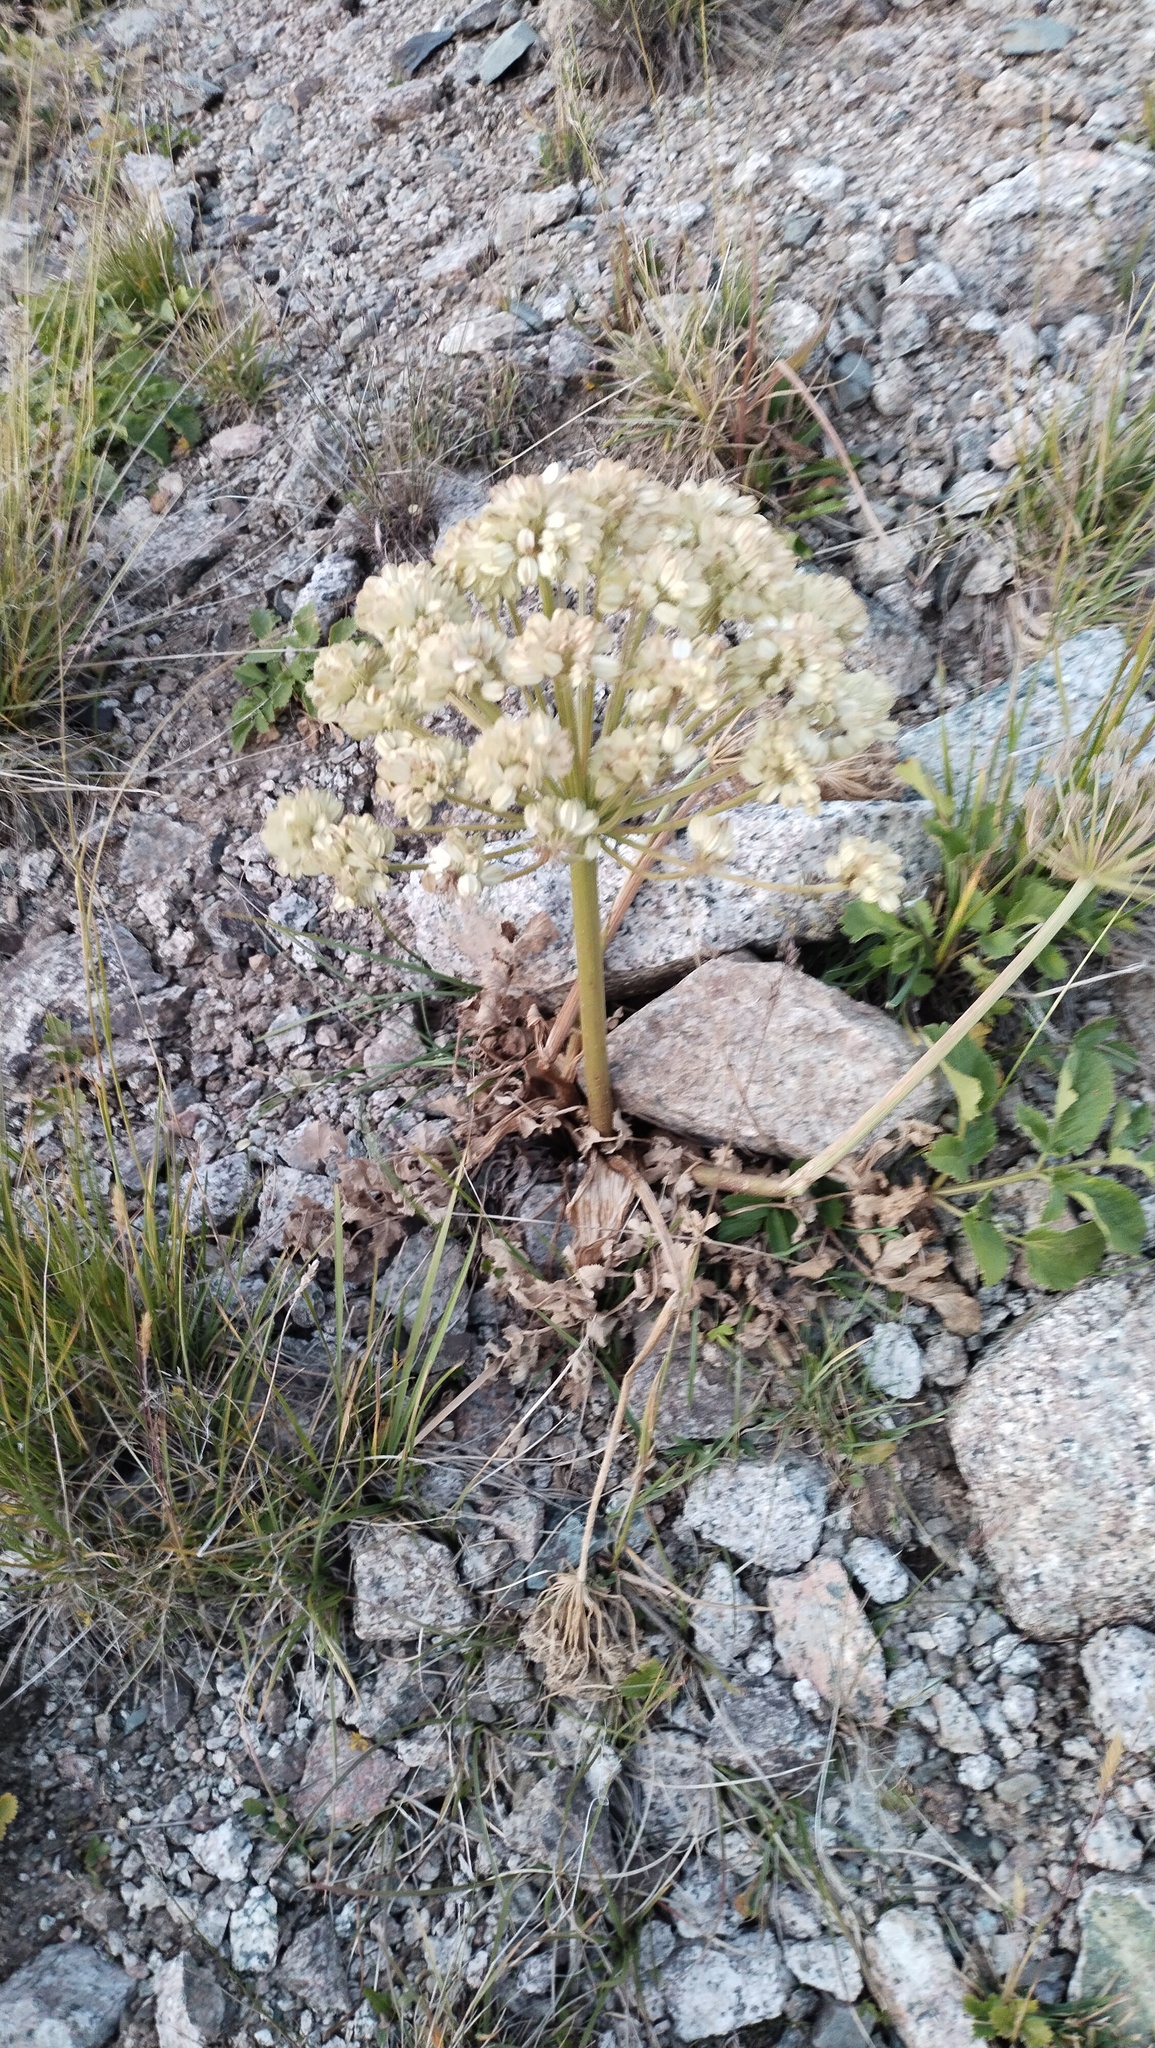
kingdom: Plantae
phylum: Tracheophyta
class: Magnoliopsida
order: Apiales
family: Apiaceae
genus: Angelica
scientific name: Angelica brevicaulis
